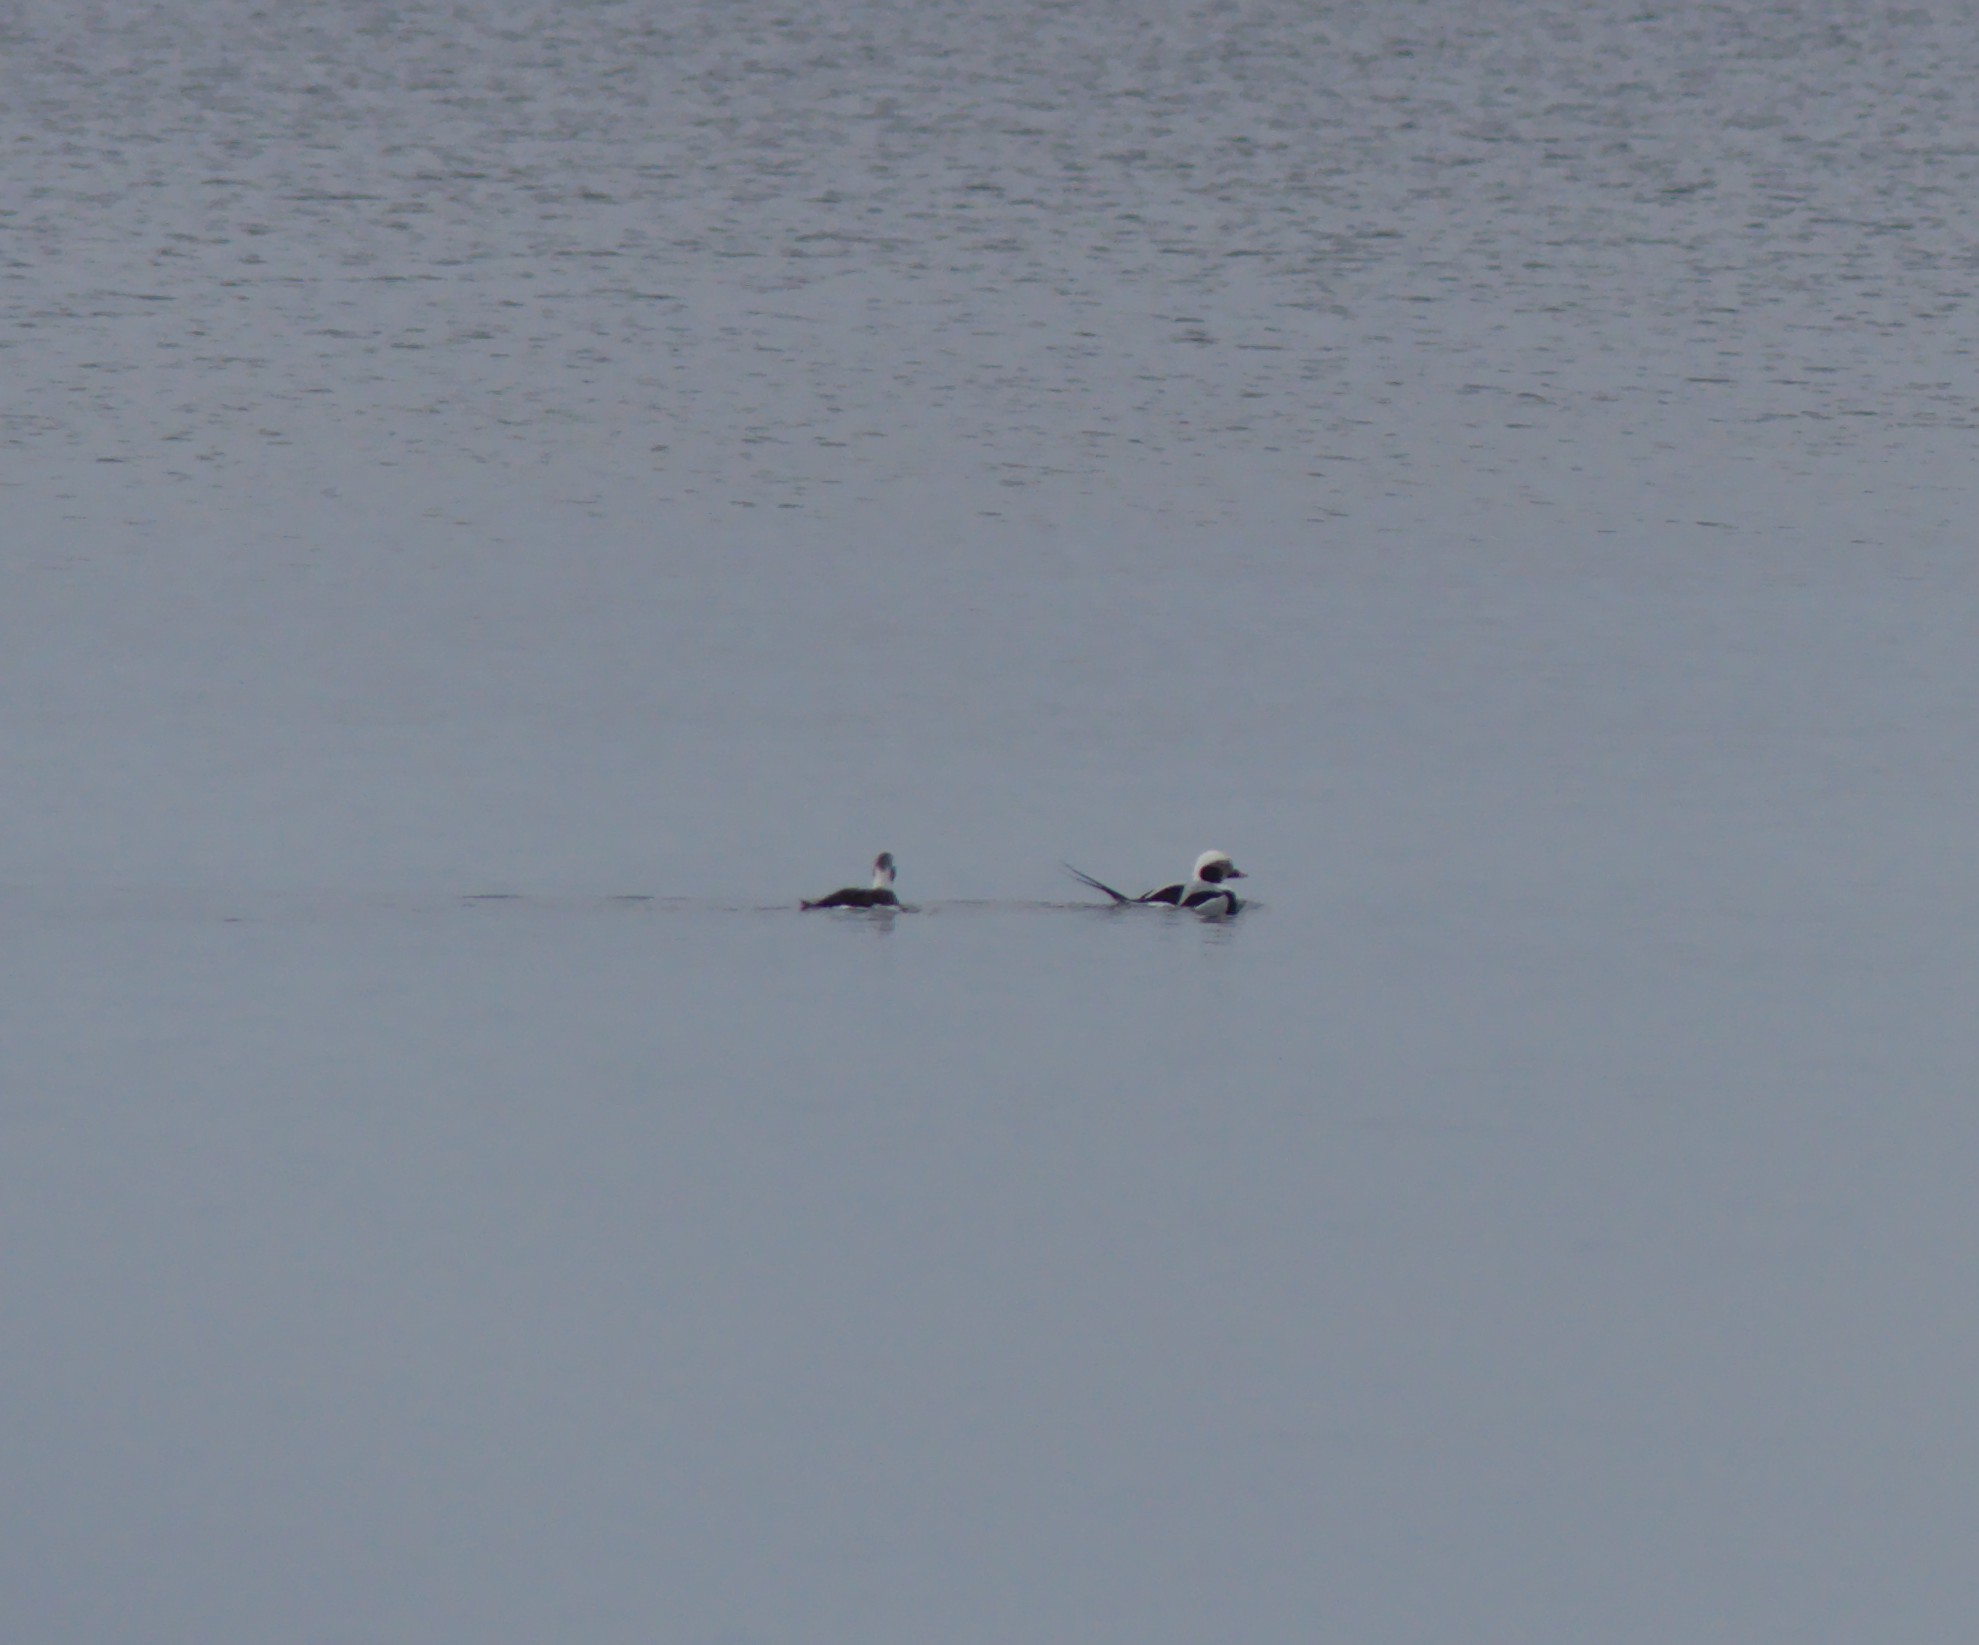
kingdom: Animalia
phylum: Chordata
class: Aves
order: Anseriformes
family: Anatidae
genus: Clangula
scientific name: Clangula hyemalis
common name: Long-tailed duck
